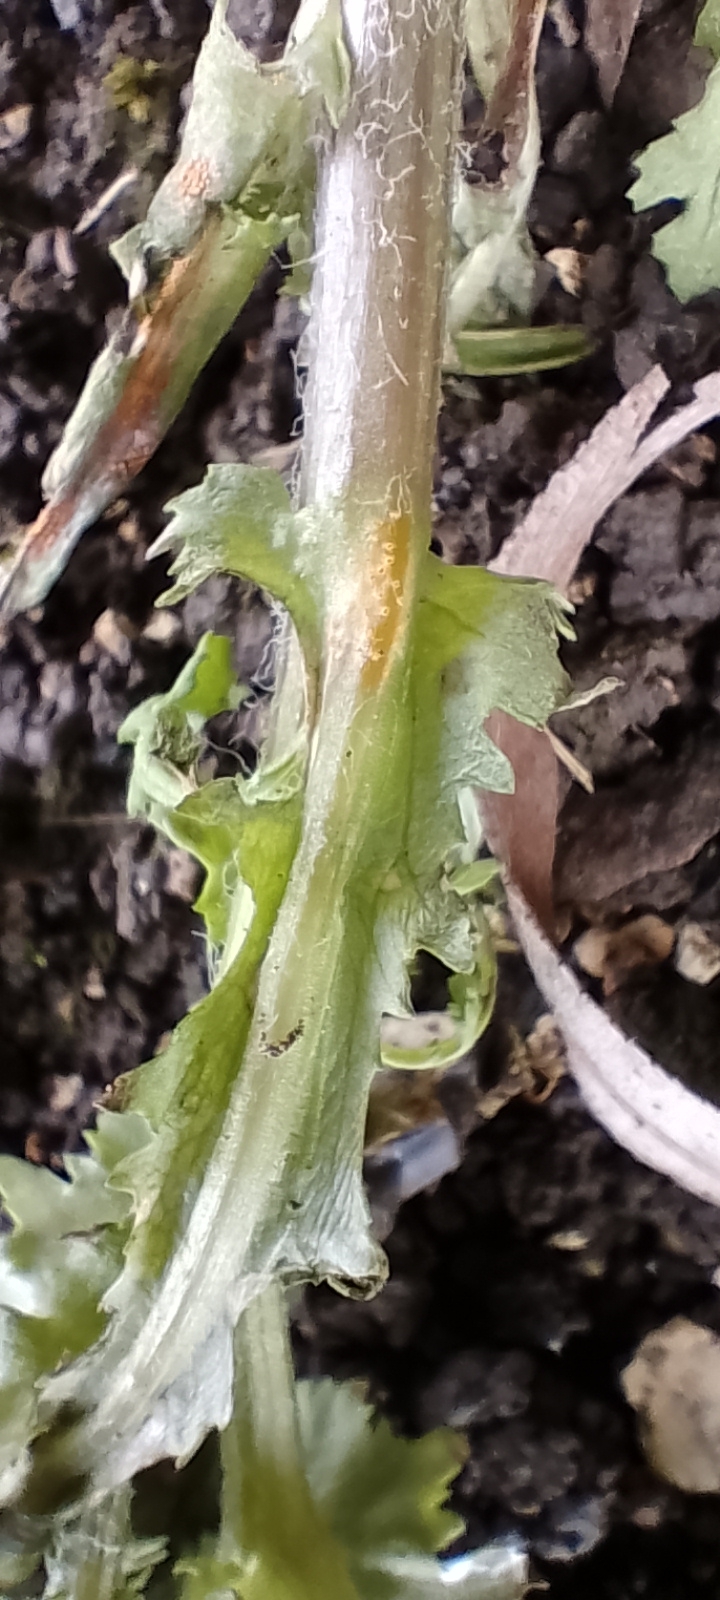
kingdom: Fungi
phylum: Basidiomycota
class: Pucciniomycetes
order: Pucciniales
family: Pucciniaceae
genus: Puccinia
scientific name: Puccinia lagenophorae
